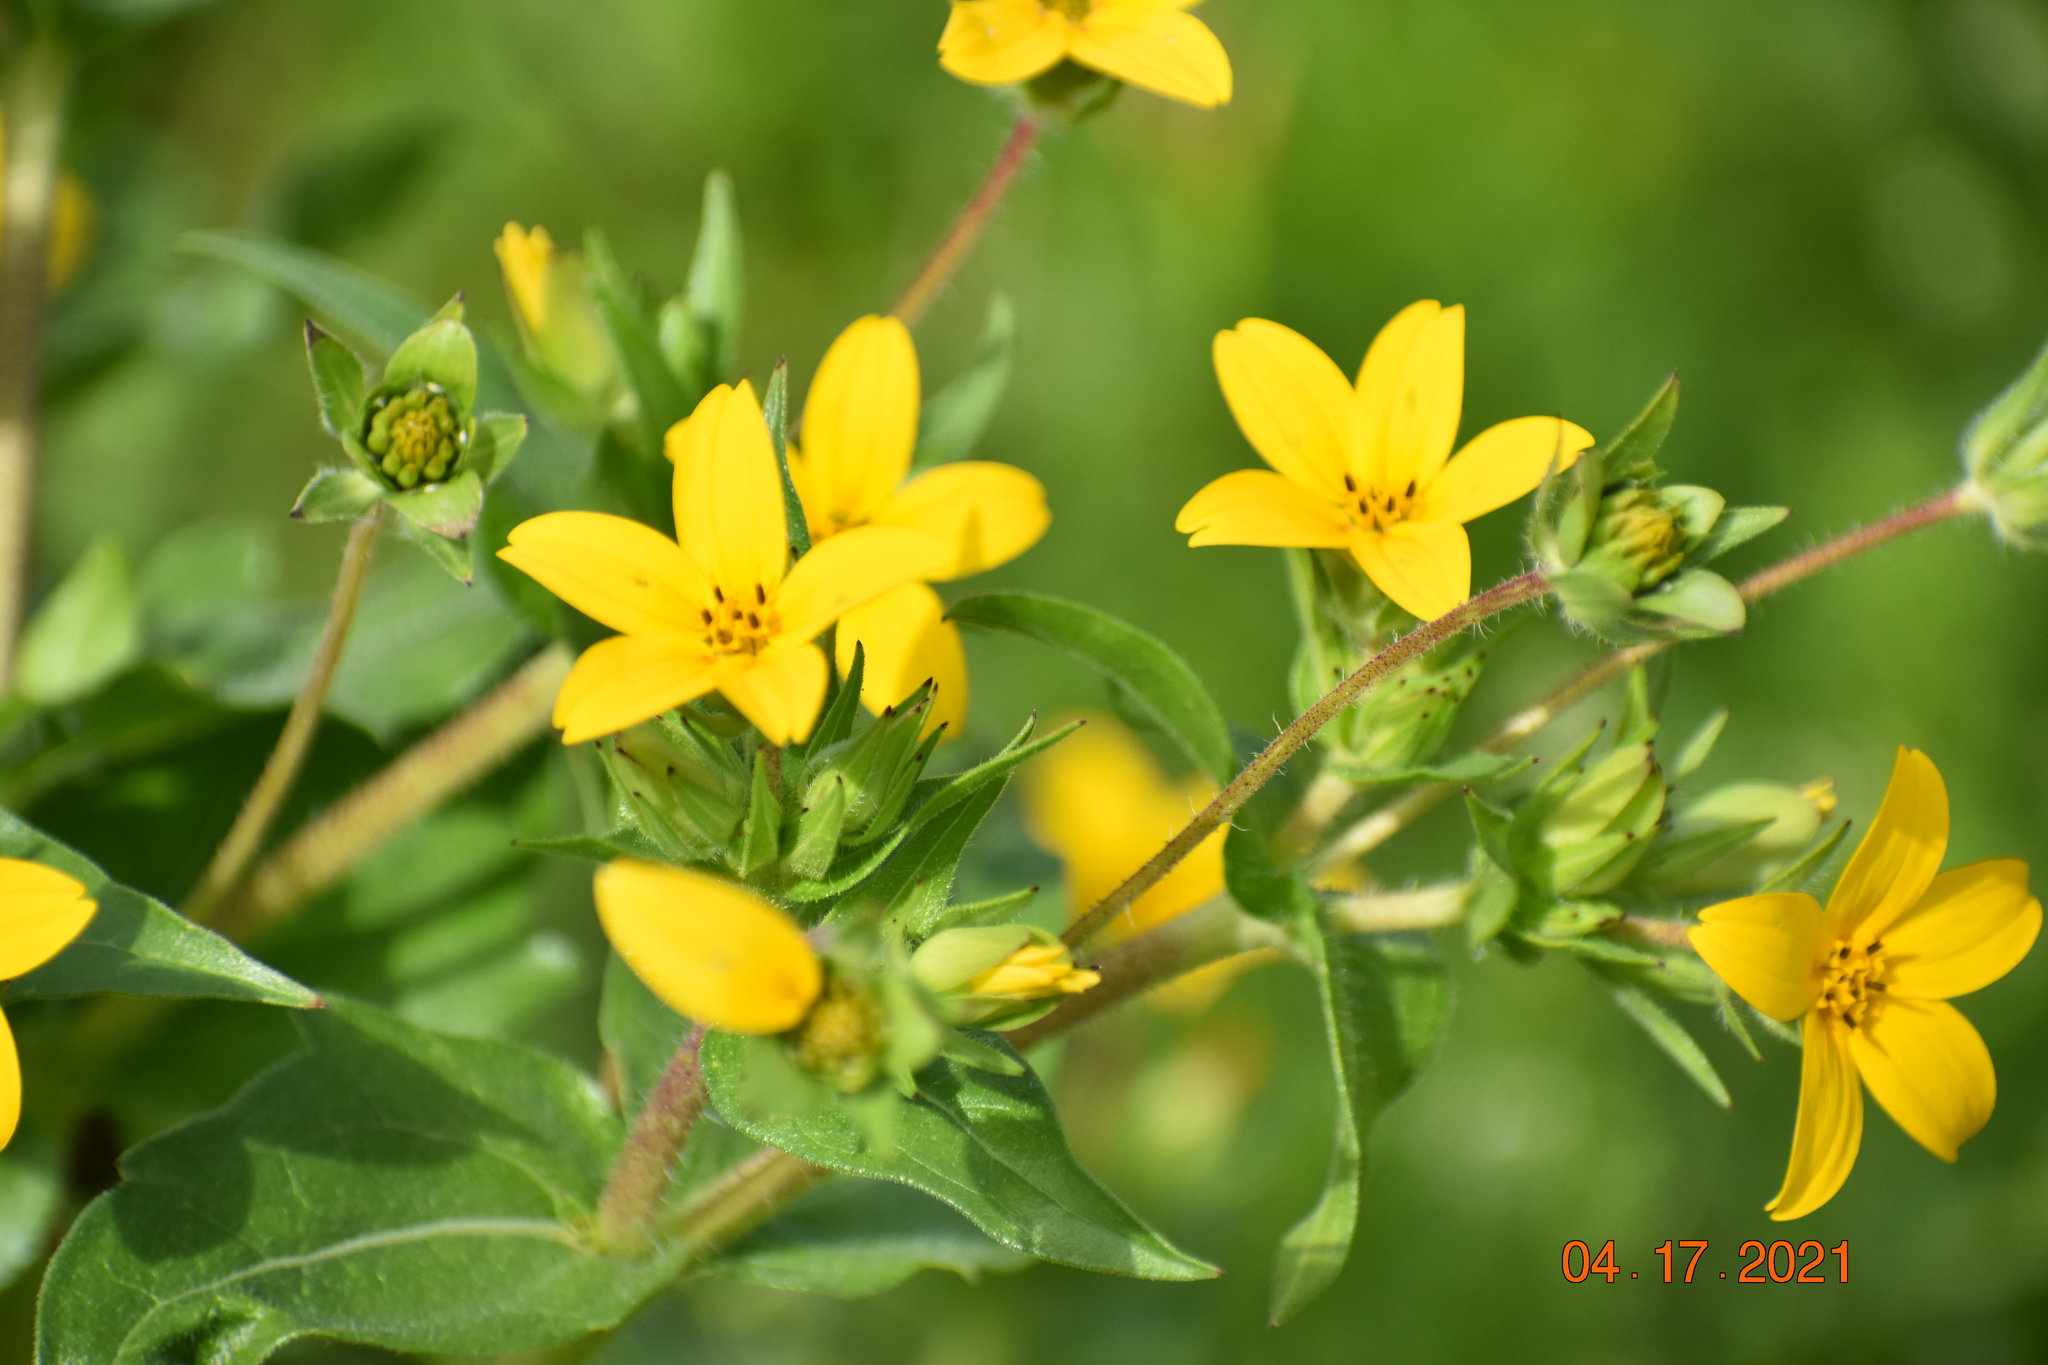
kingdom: Plantae
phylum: Tracheophyta
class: Magnoliopsida
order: Asterales
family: Asteraceae
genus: Lindheimera
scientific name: Lindheimera texana
